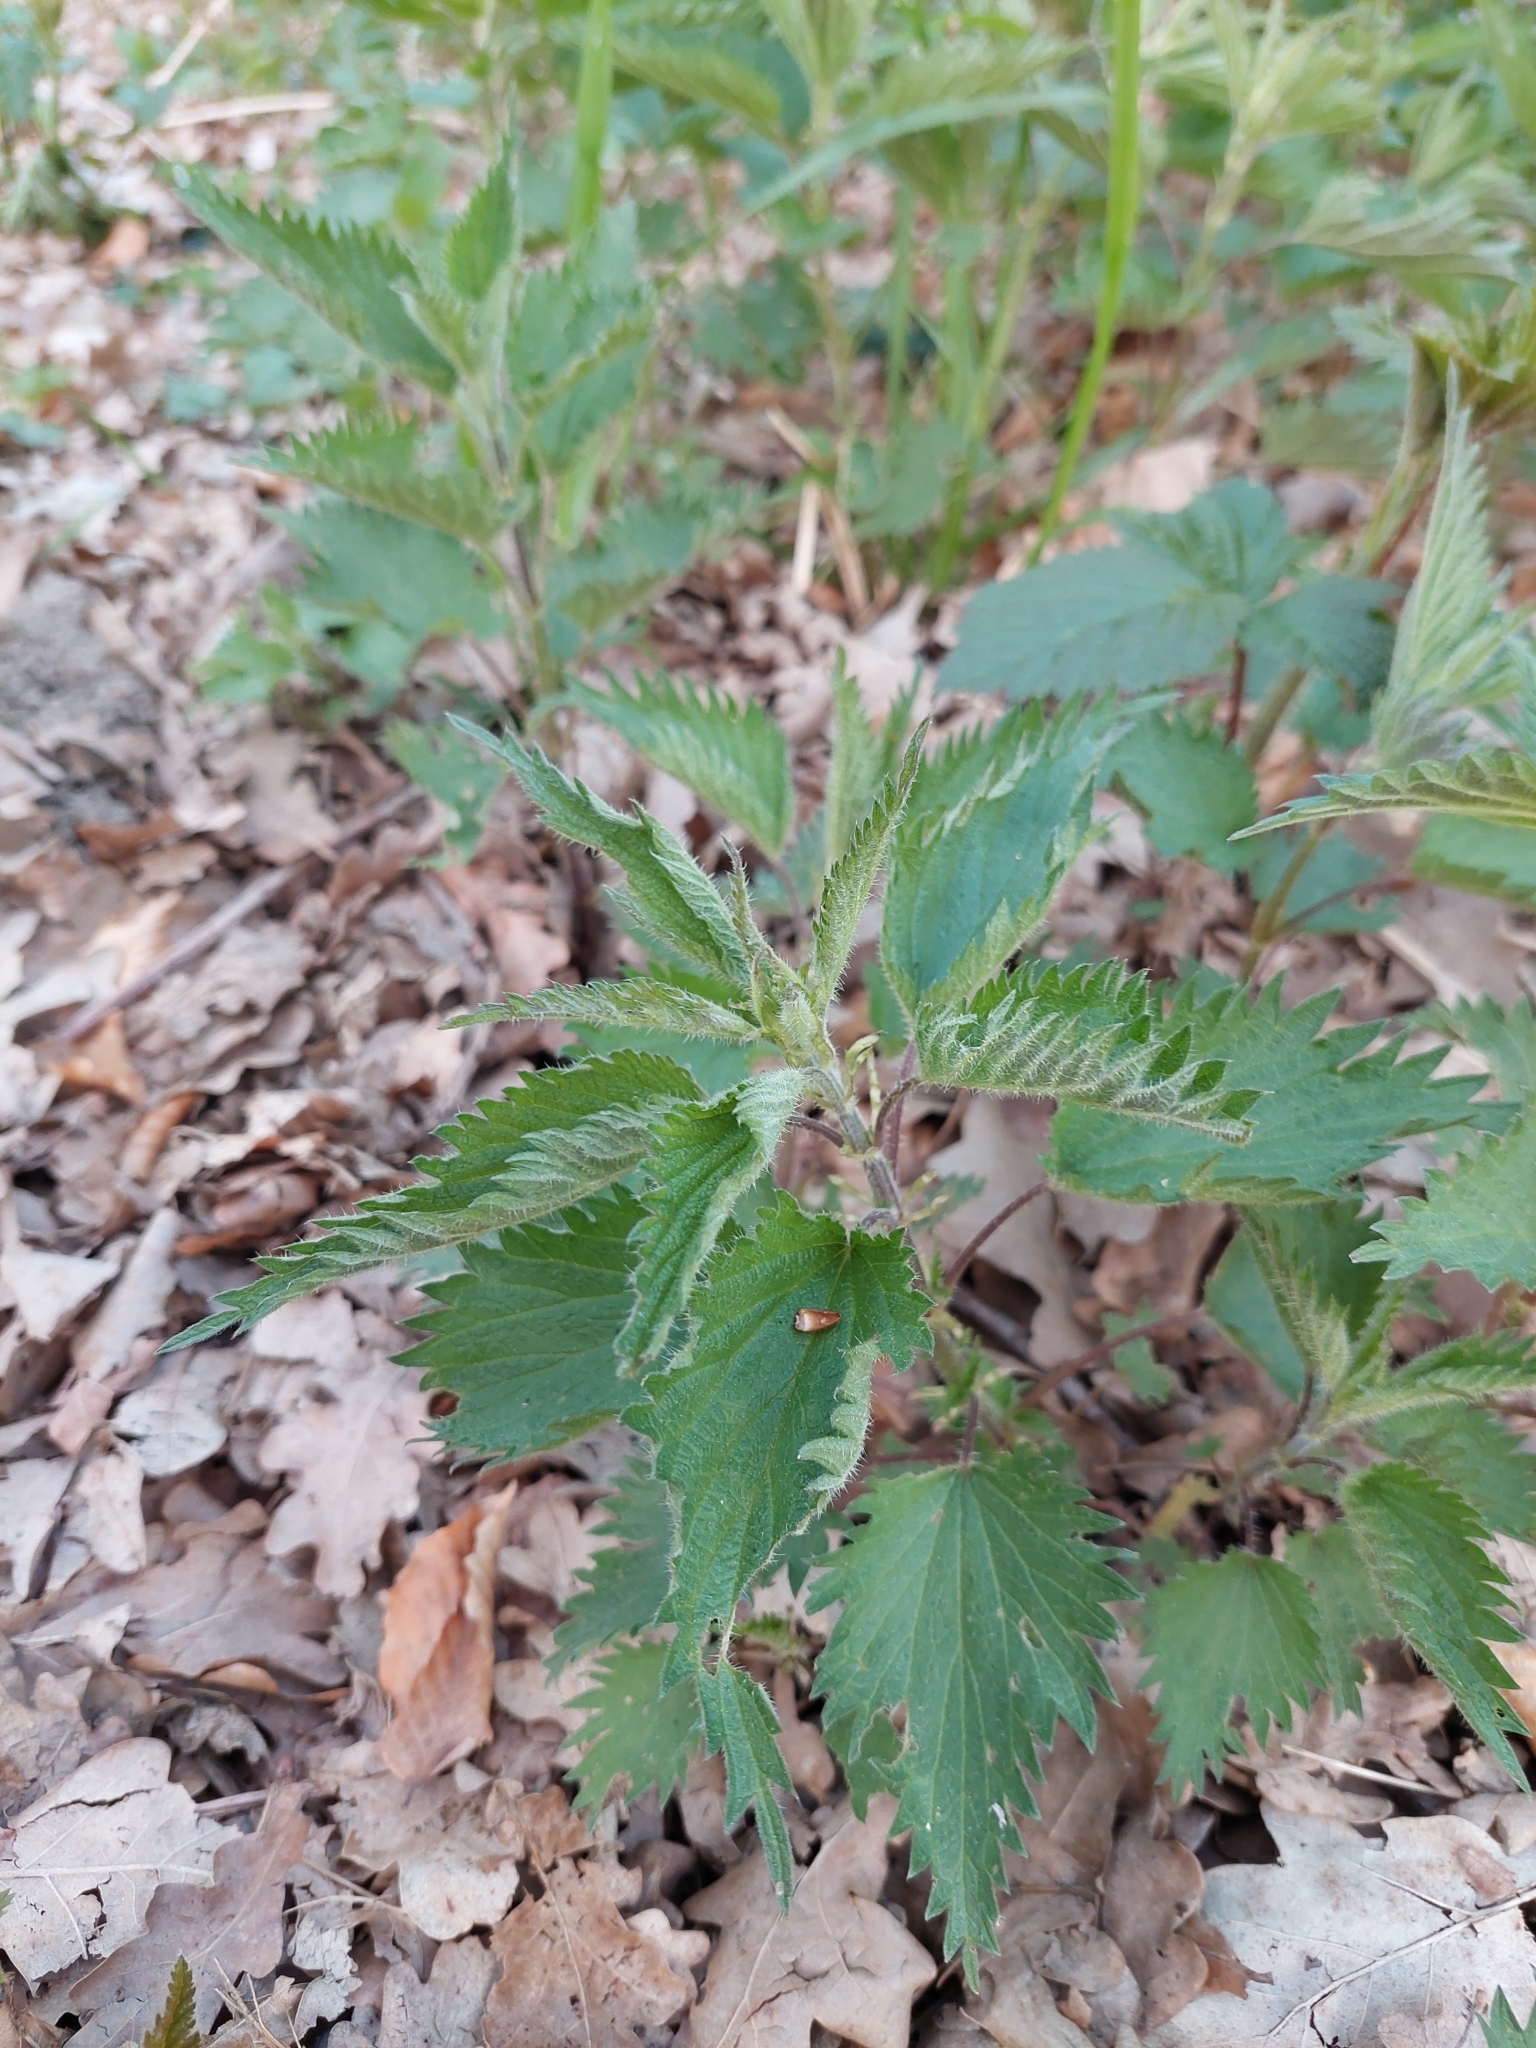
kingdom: Plantae
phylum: Tracheophyta
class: Magnoliopsida
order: Rosales
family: Urticaceae
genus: Urtica
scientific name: Urtica dioica
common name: Common nettle
